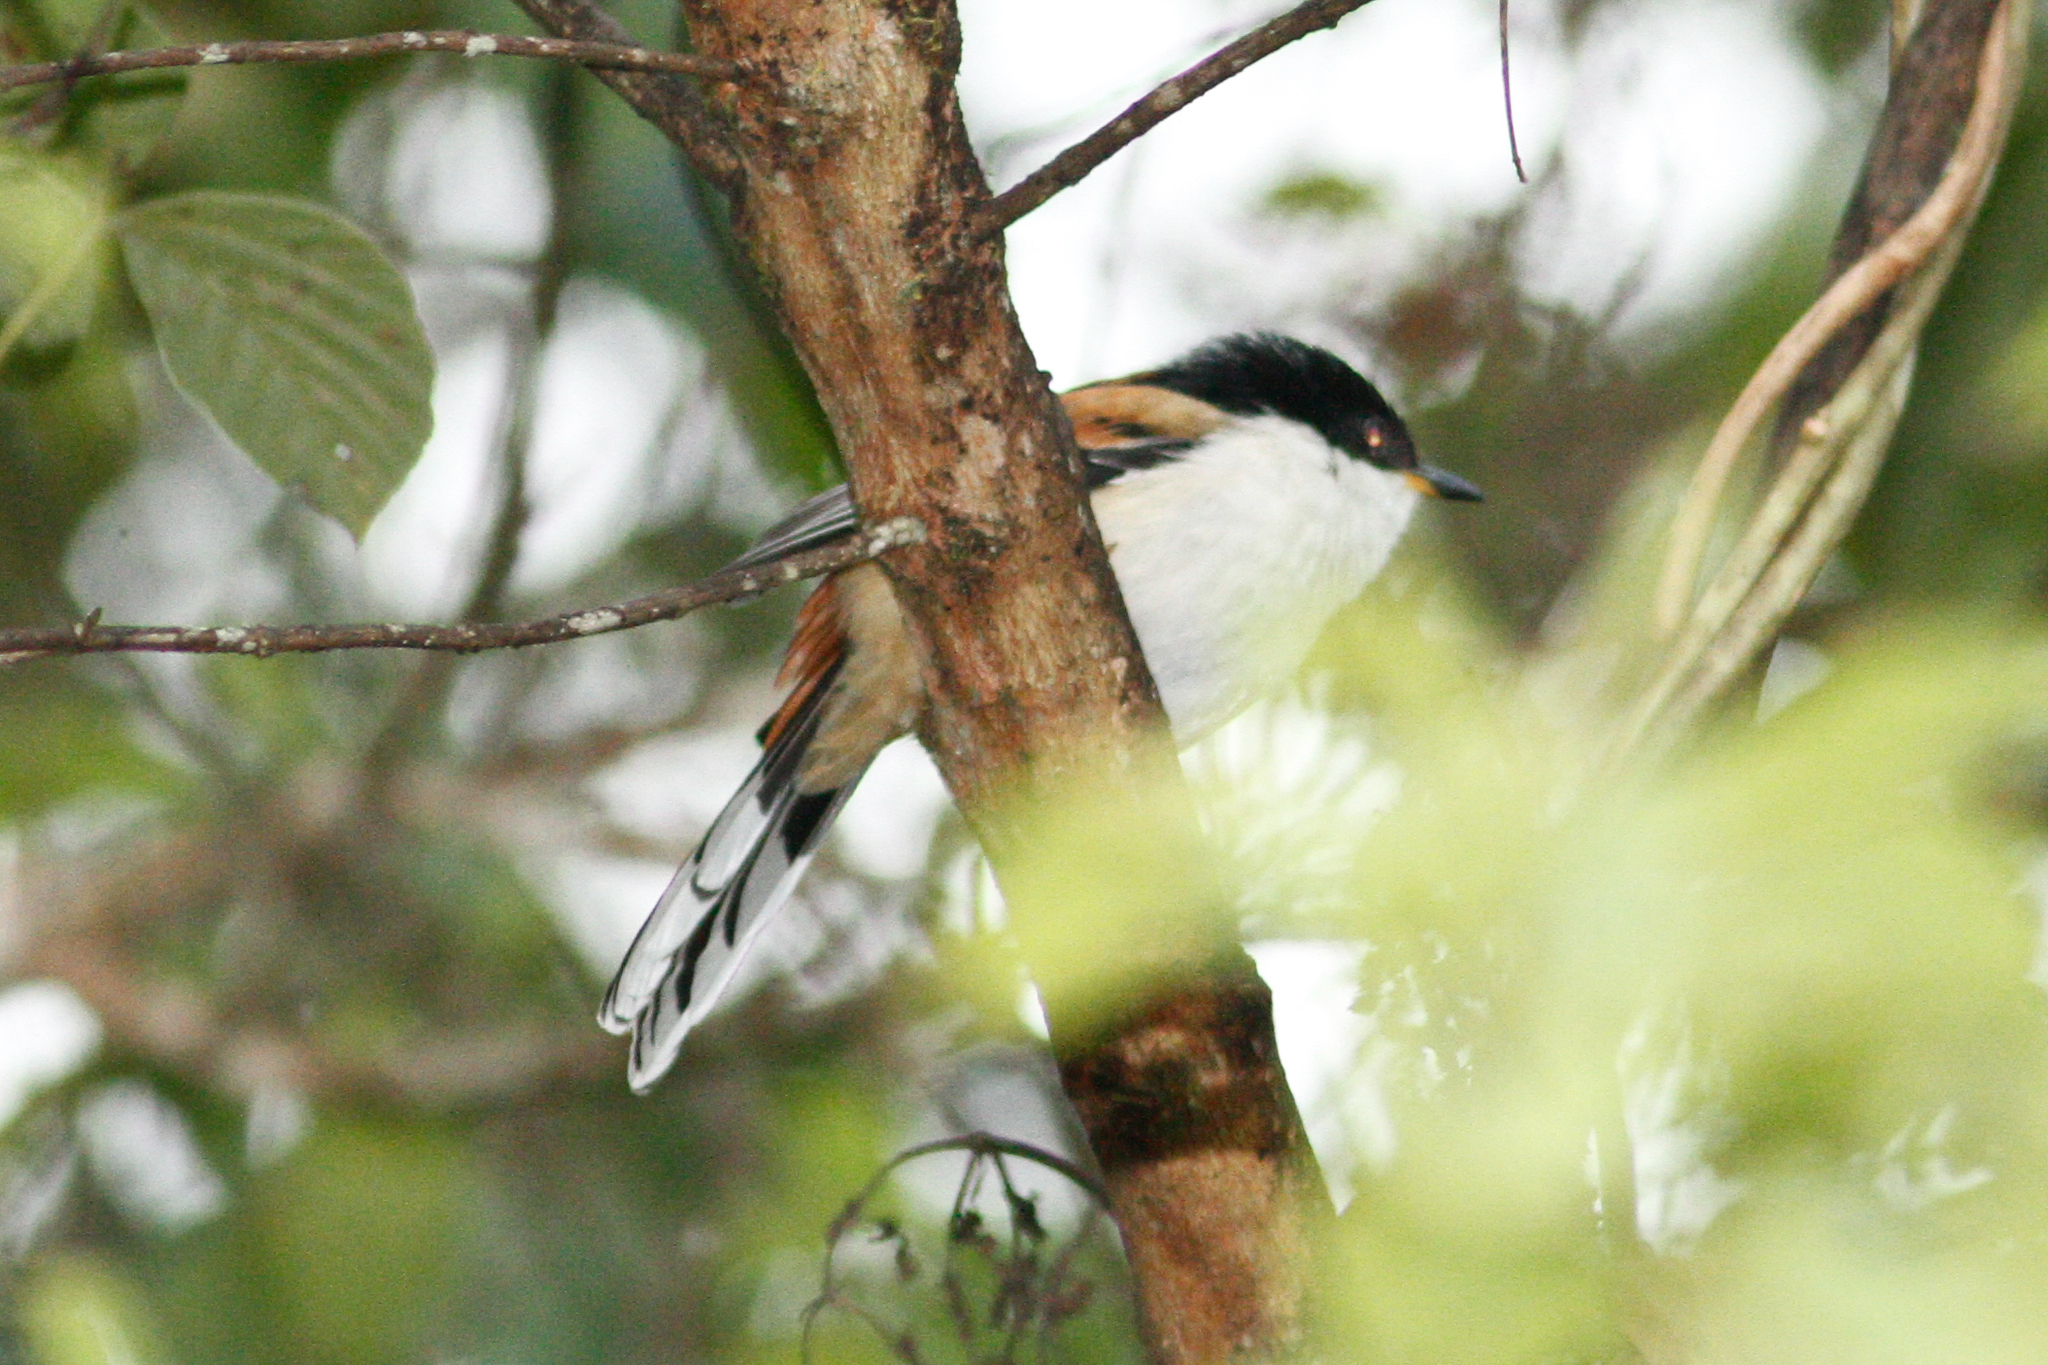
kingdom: Animalia
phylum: Chordata
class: Aves
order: Passeriformes
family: Leiothrichidae
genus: Heterophasia
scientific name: Heterophasia annectans
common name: Rufous-backed sibia
